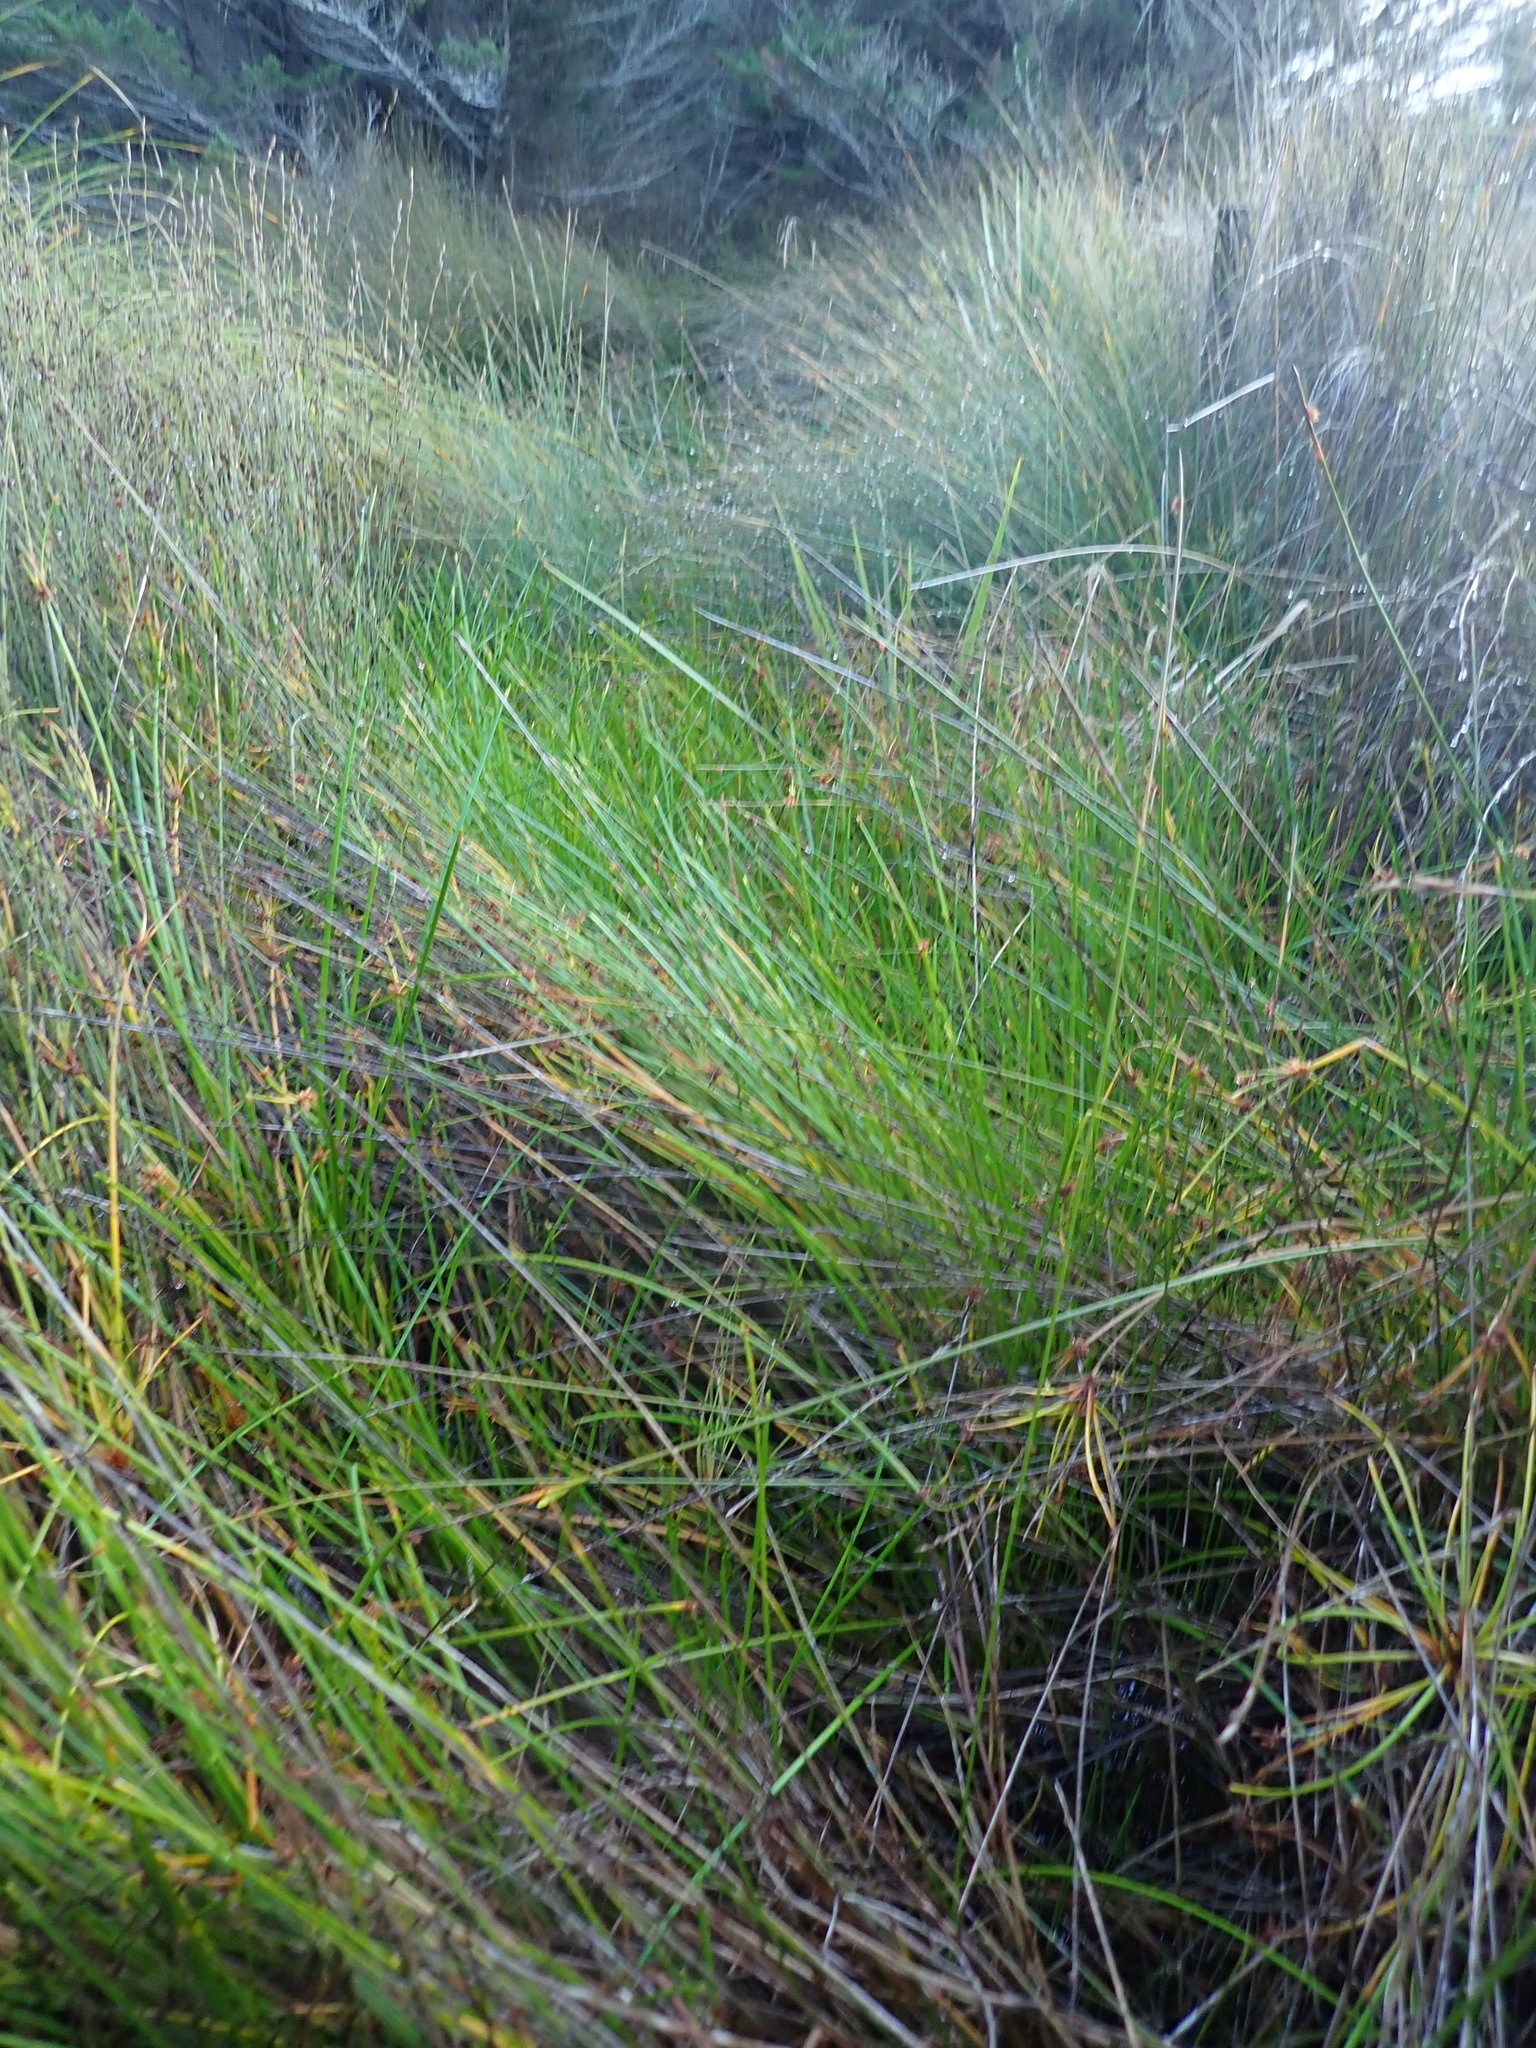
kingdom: Plantae
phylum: Tracheophyta
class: Liliopsida
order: Poales
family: Cyperaceae
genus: Isolepis
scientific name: Isolepis prolifera
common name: Proliferating bulrush
